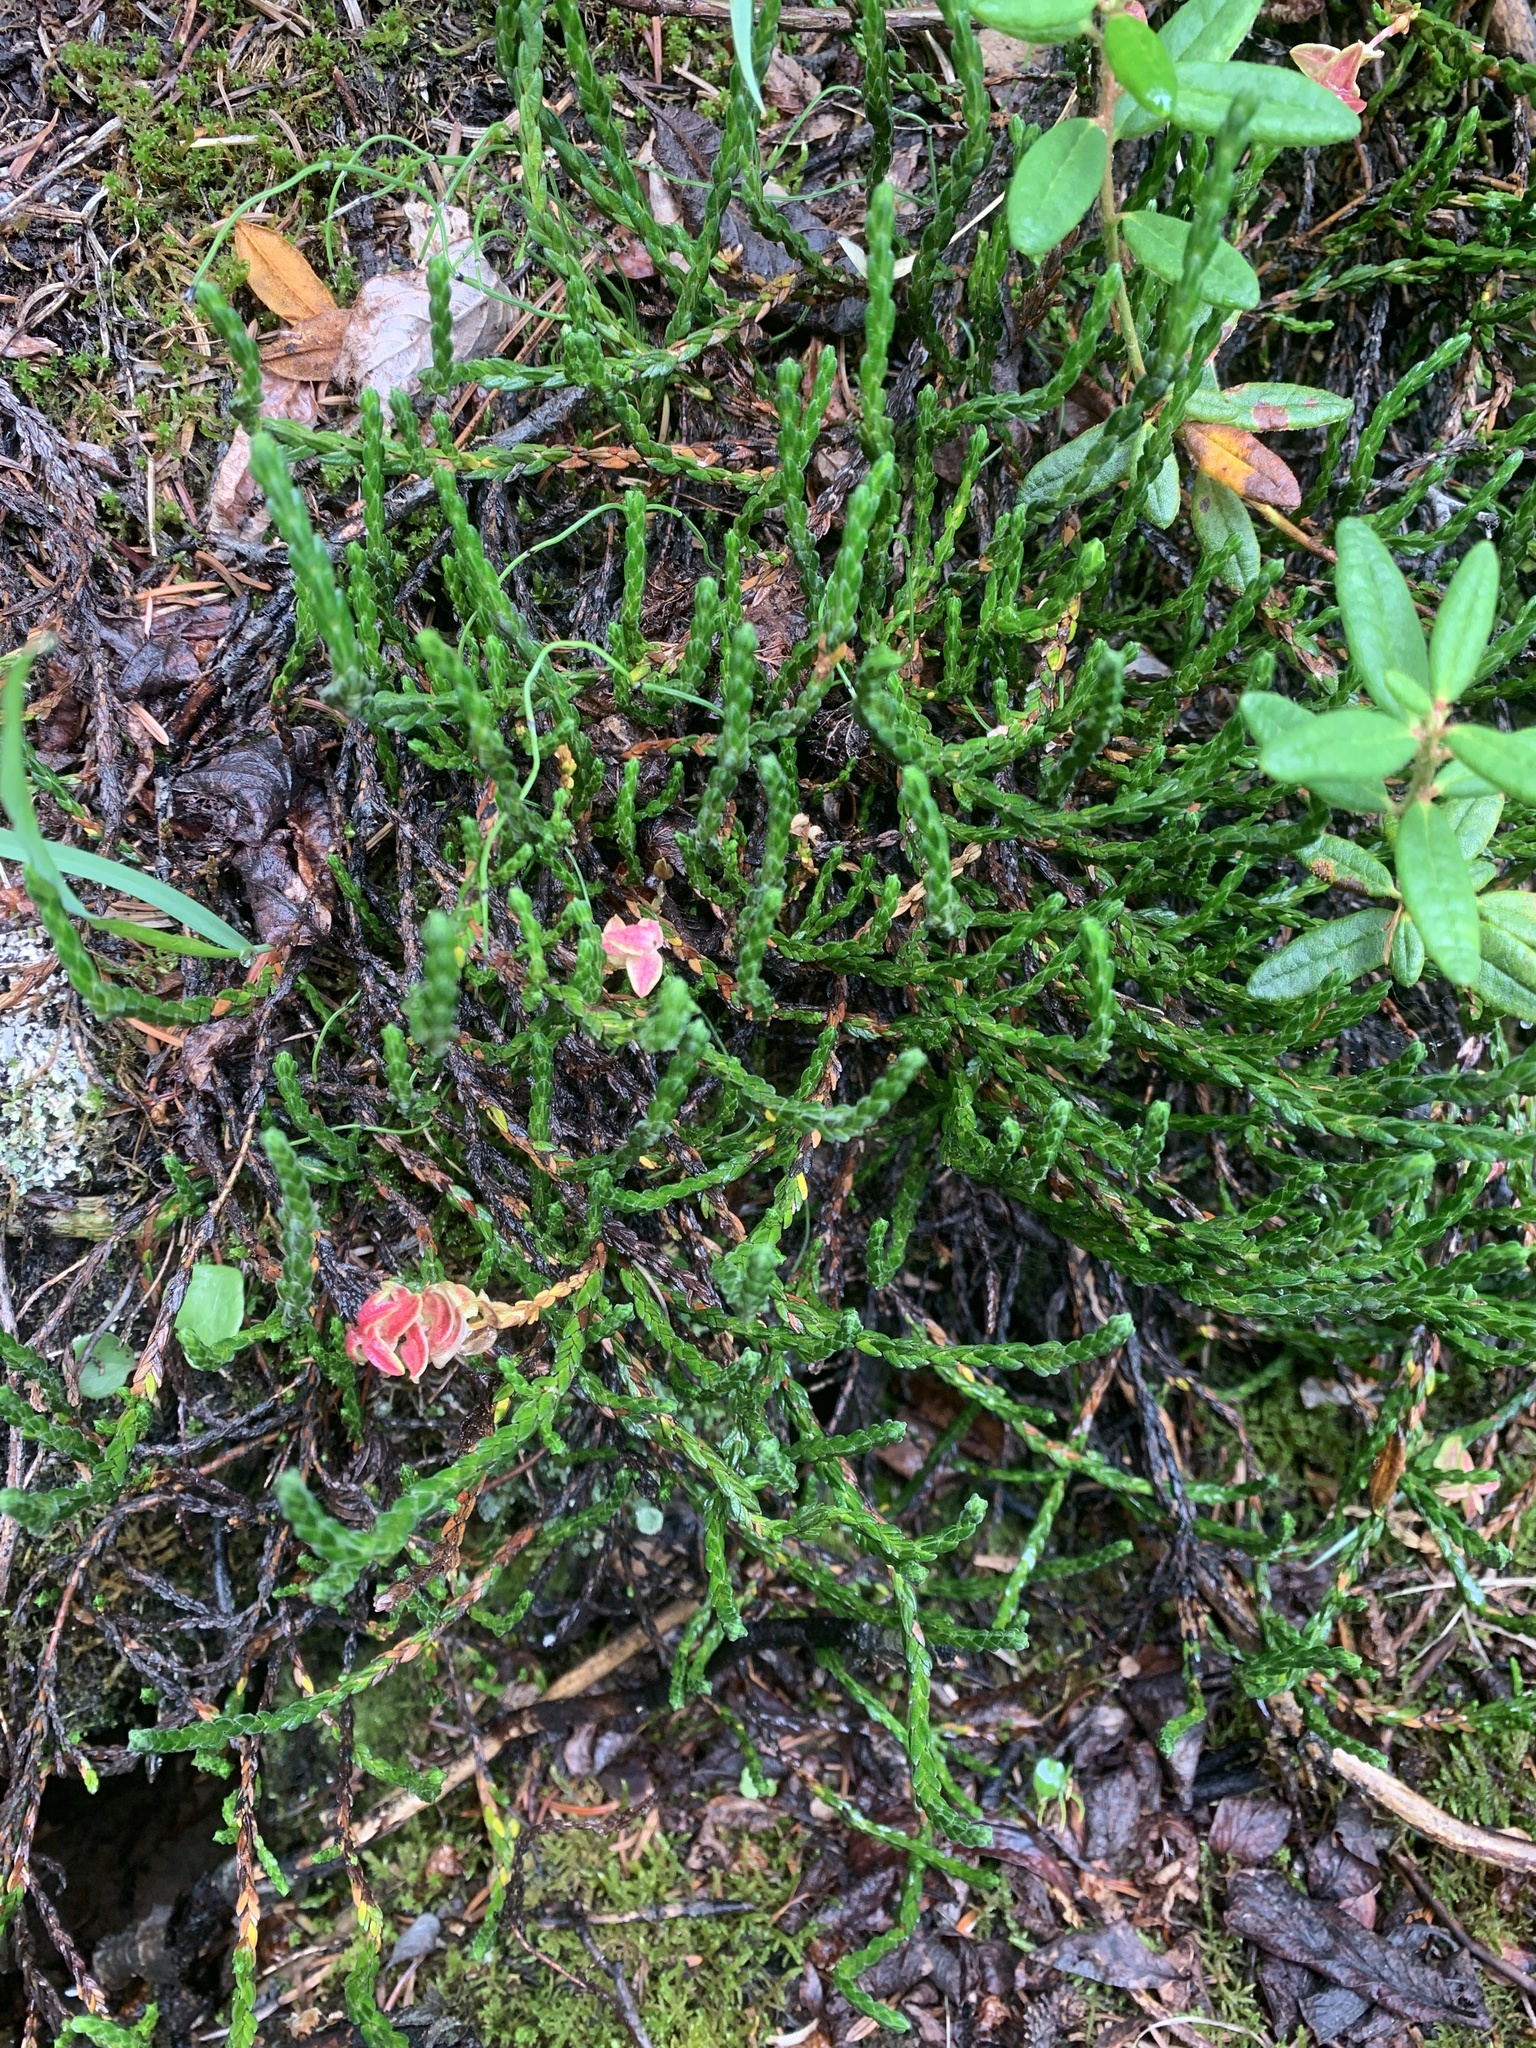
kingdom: Plantae
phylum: Tracheophyta
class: Magnoliopsida
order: Ericales
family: Ericaceae
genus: Cassiope
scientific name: Cassiope tetragona
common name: Arctic bell heather
